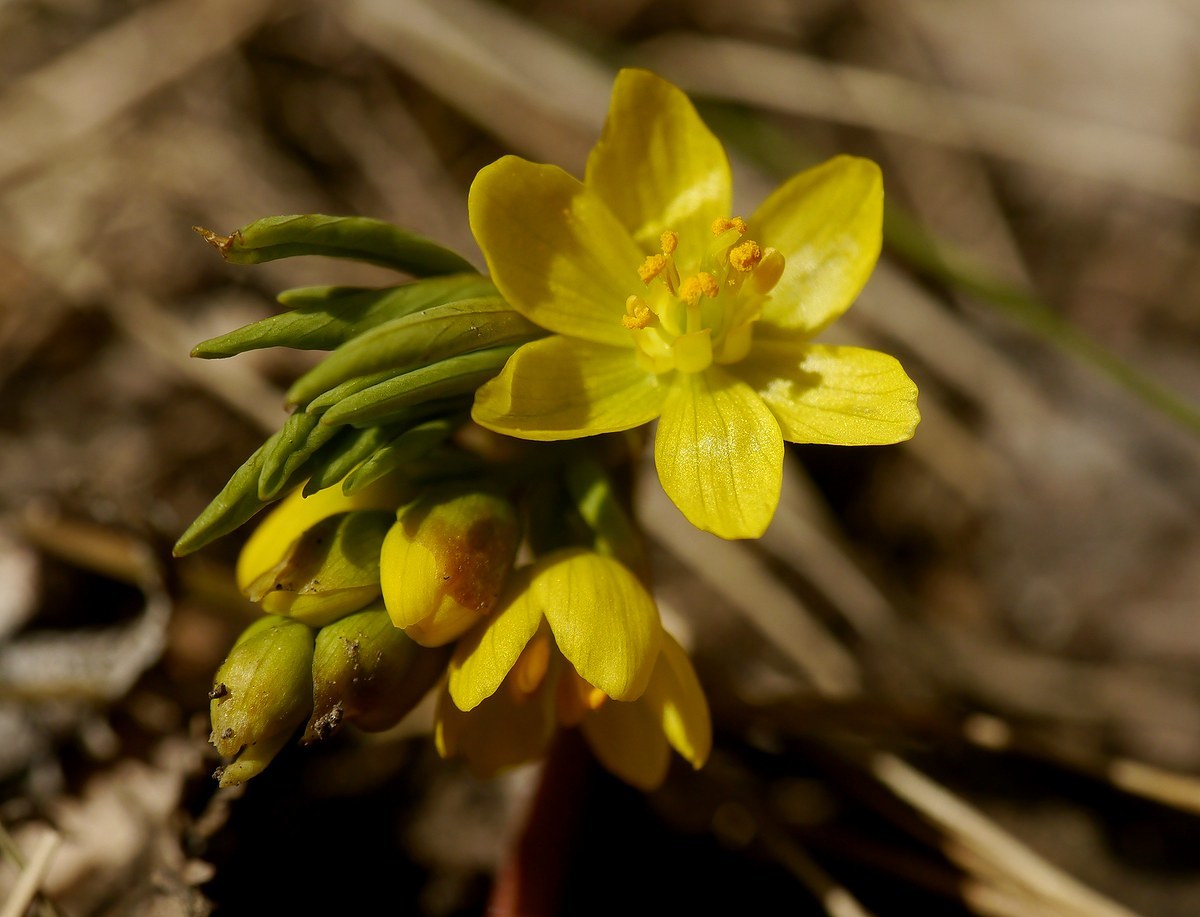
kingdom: Plantae
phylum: Tracheophyta
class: Magnoliopsida
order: Ranunculales
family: Berberidaceae
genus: Gymnospermium
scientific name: Gymnospermium odessanum
